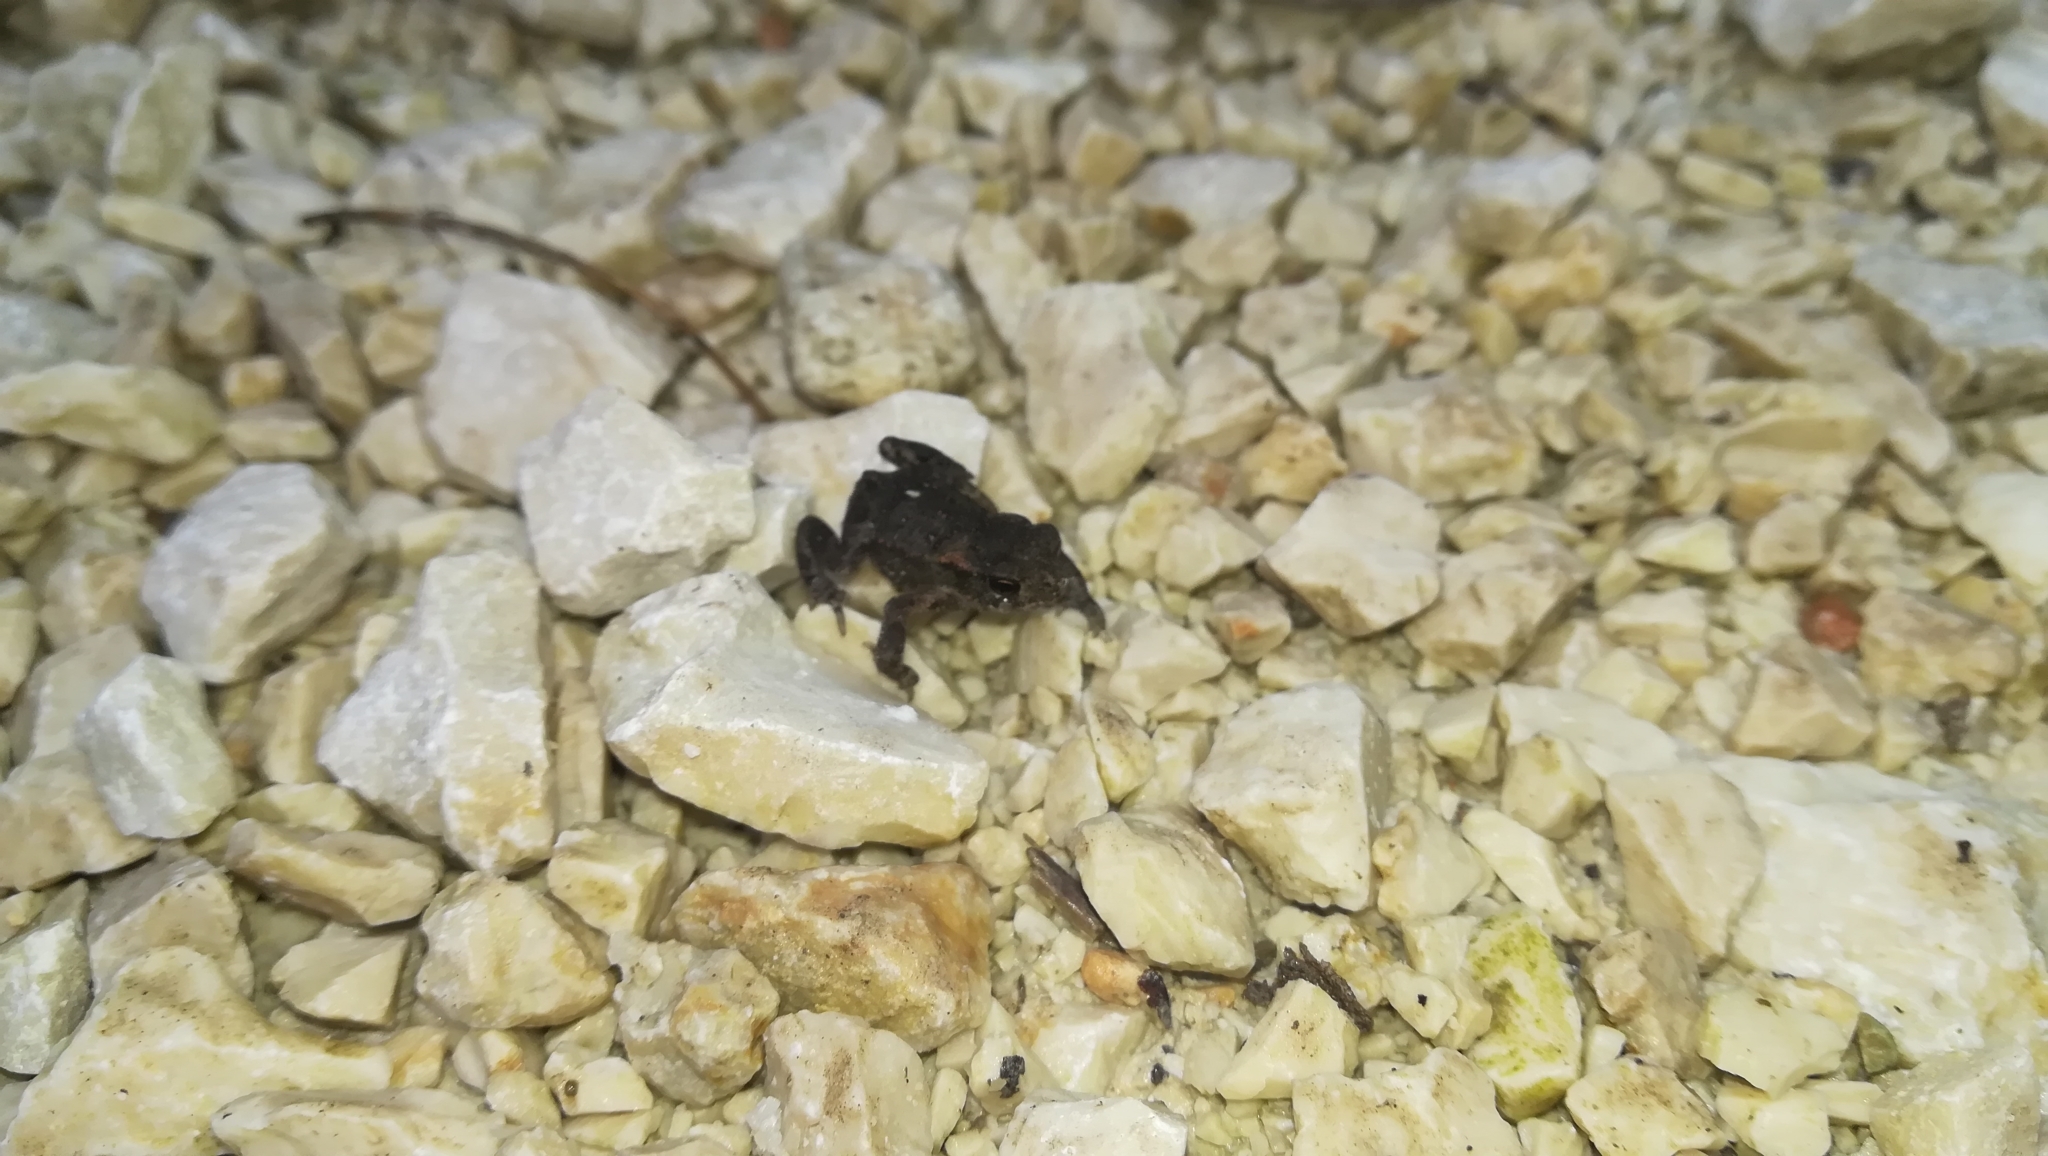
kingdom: Animalia
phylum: Chordata
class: Amphibia
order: Anura
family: Bufonidae
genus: Bufo
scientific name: Bufo bufo
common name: Common toad
